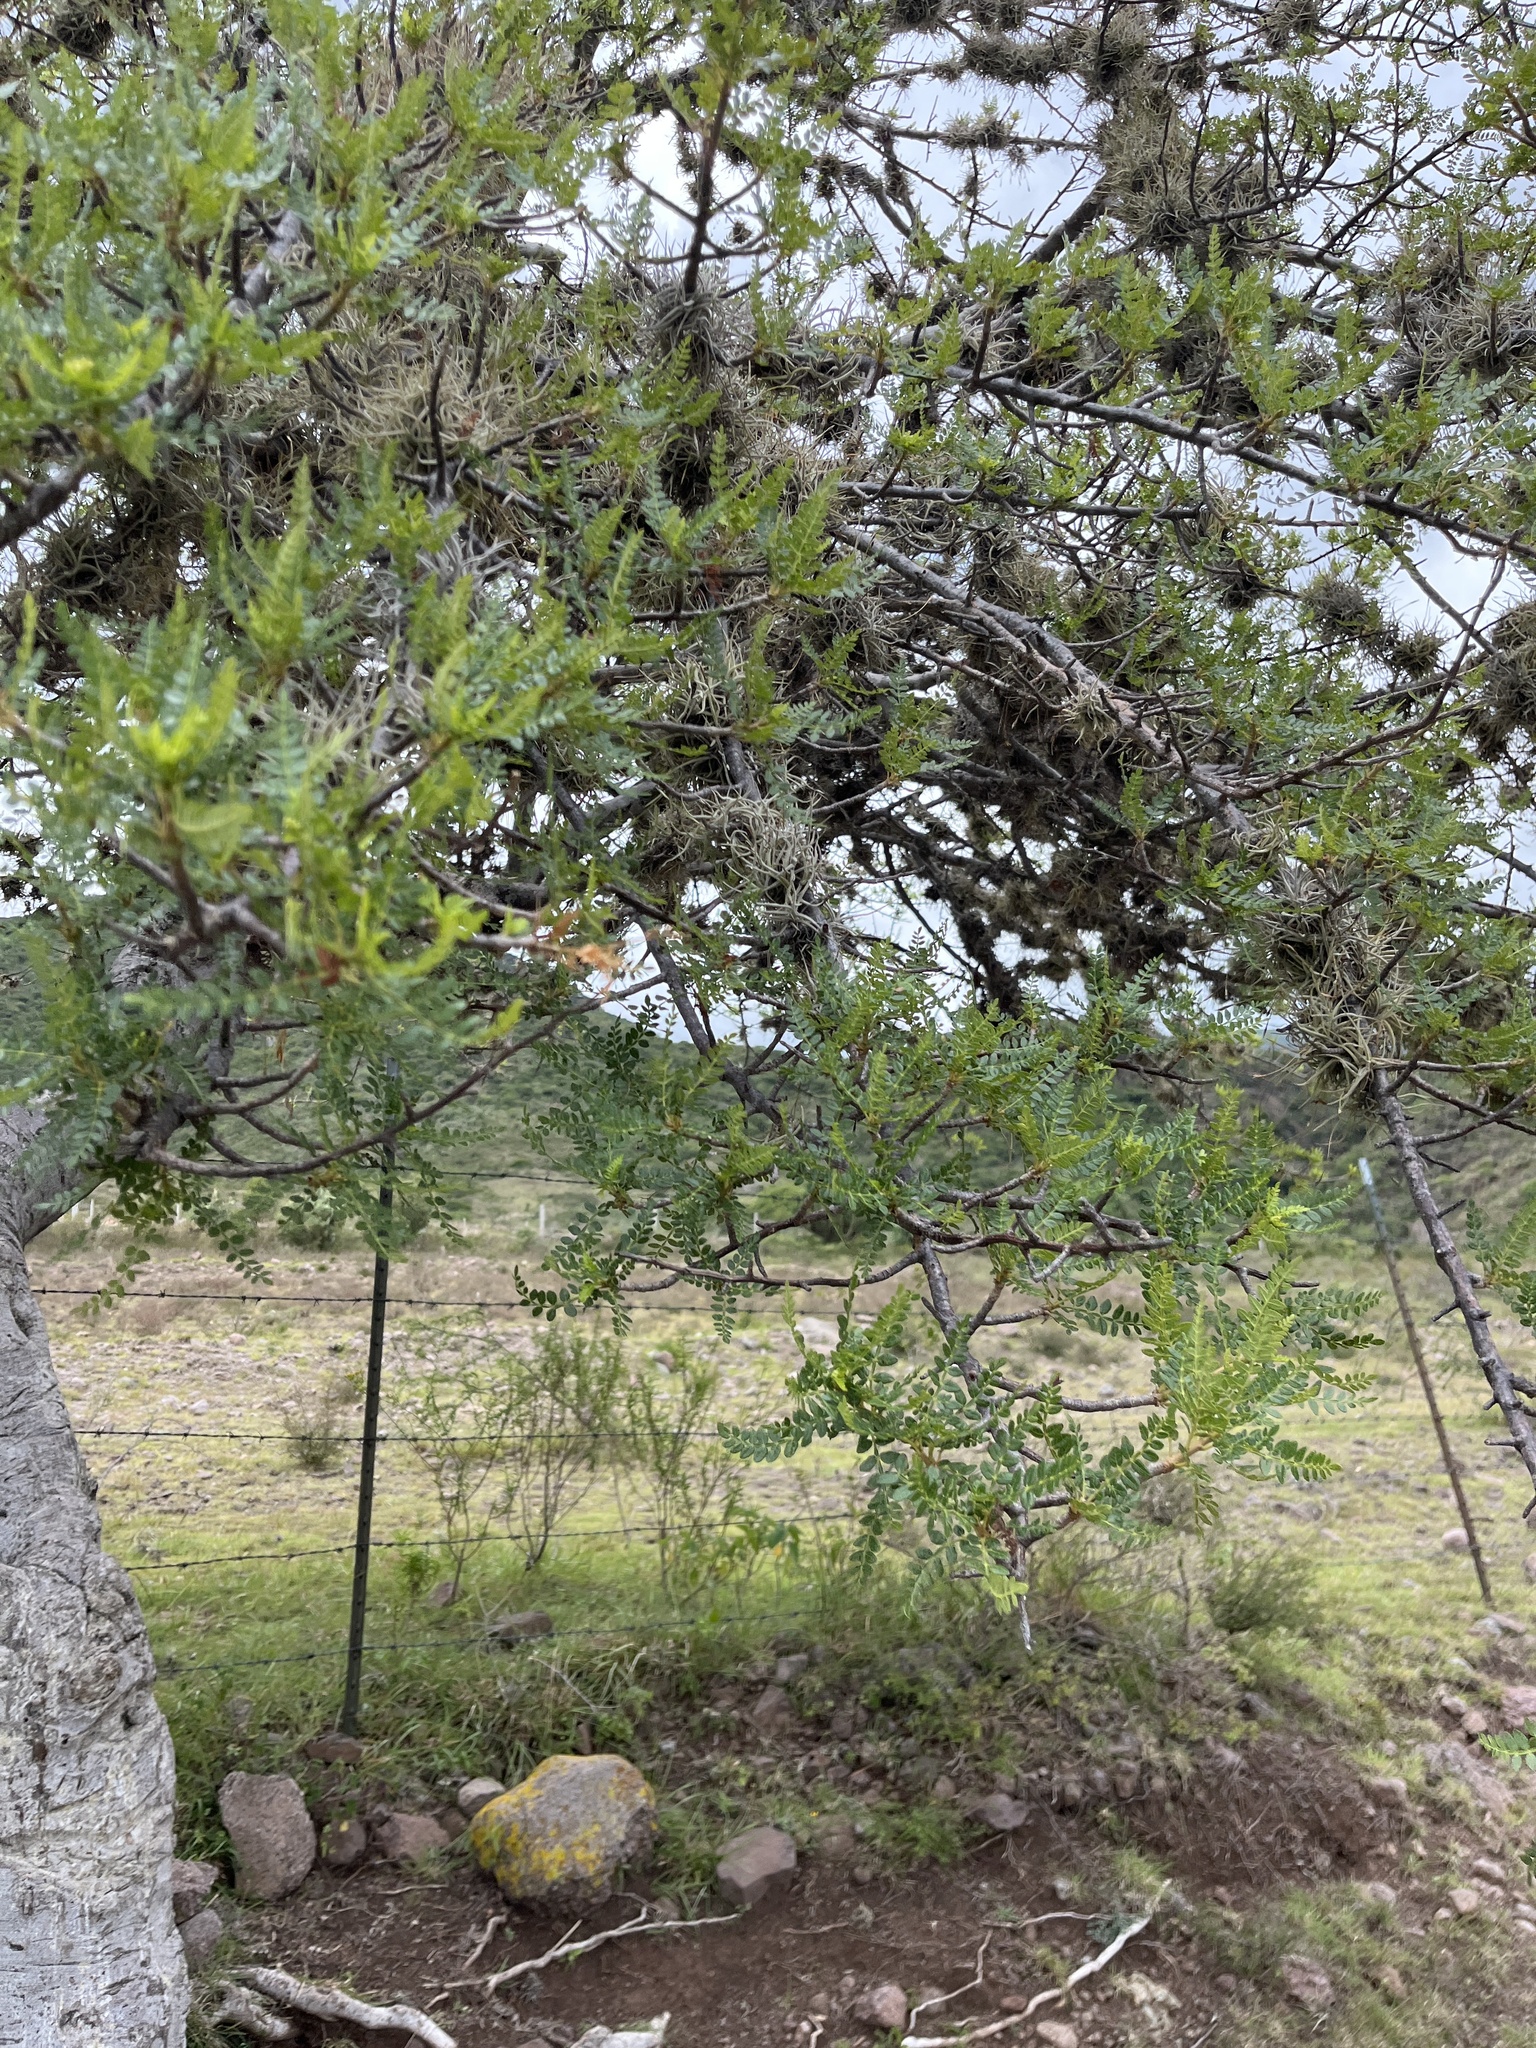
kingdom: Plantae
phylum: Tracheophyta
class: Magnoliopsida
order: Sapindales
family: Burseraceae
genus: Bursera
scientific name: Bursera bipinnata
